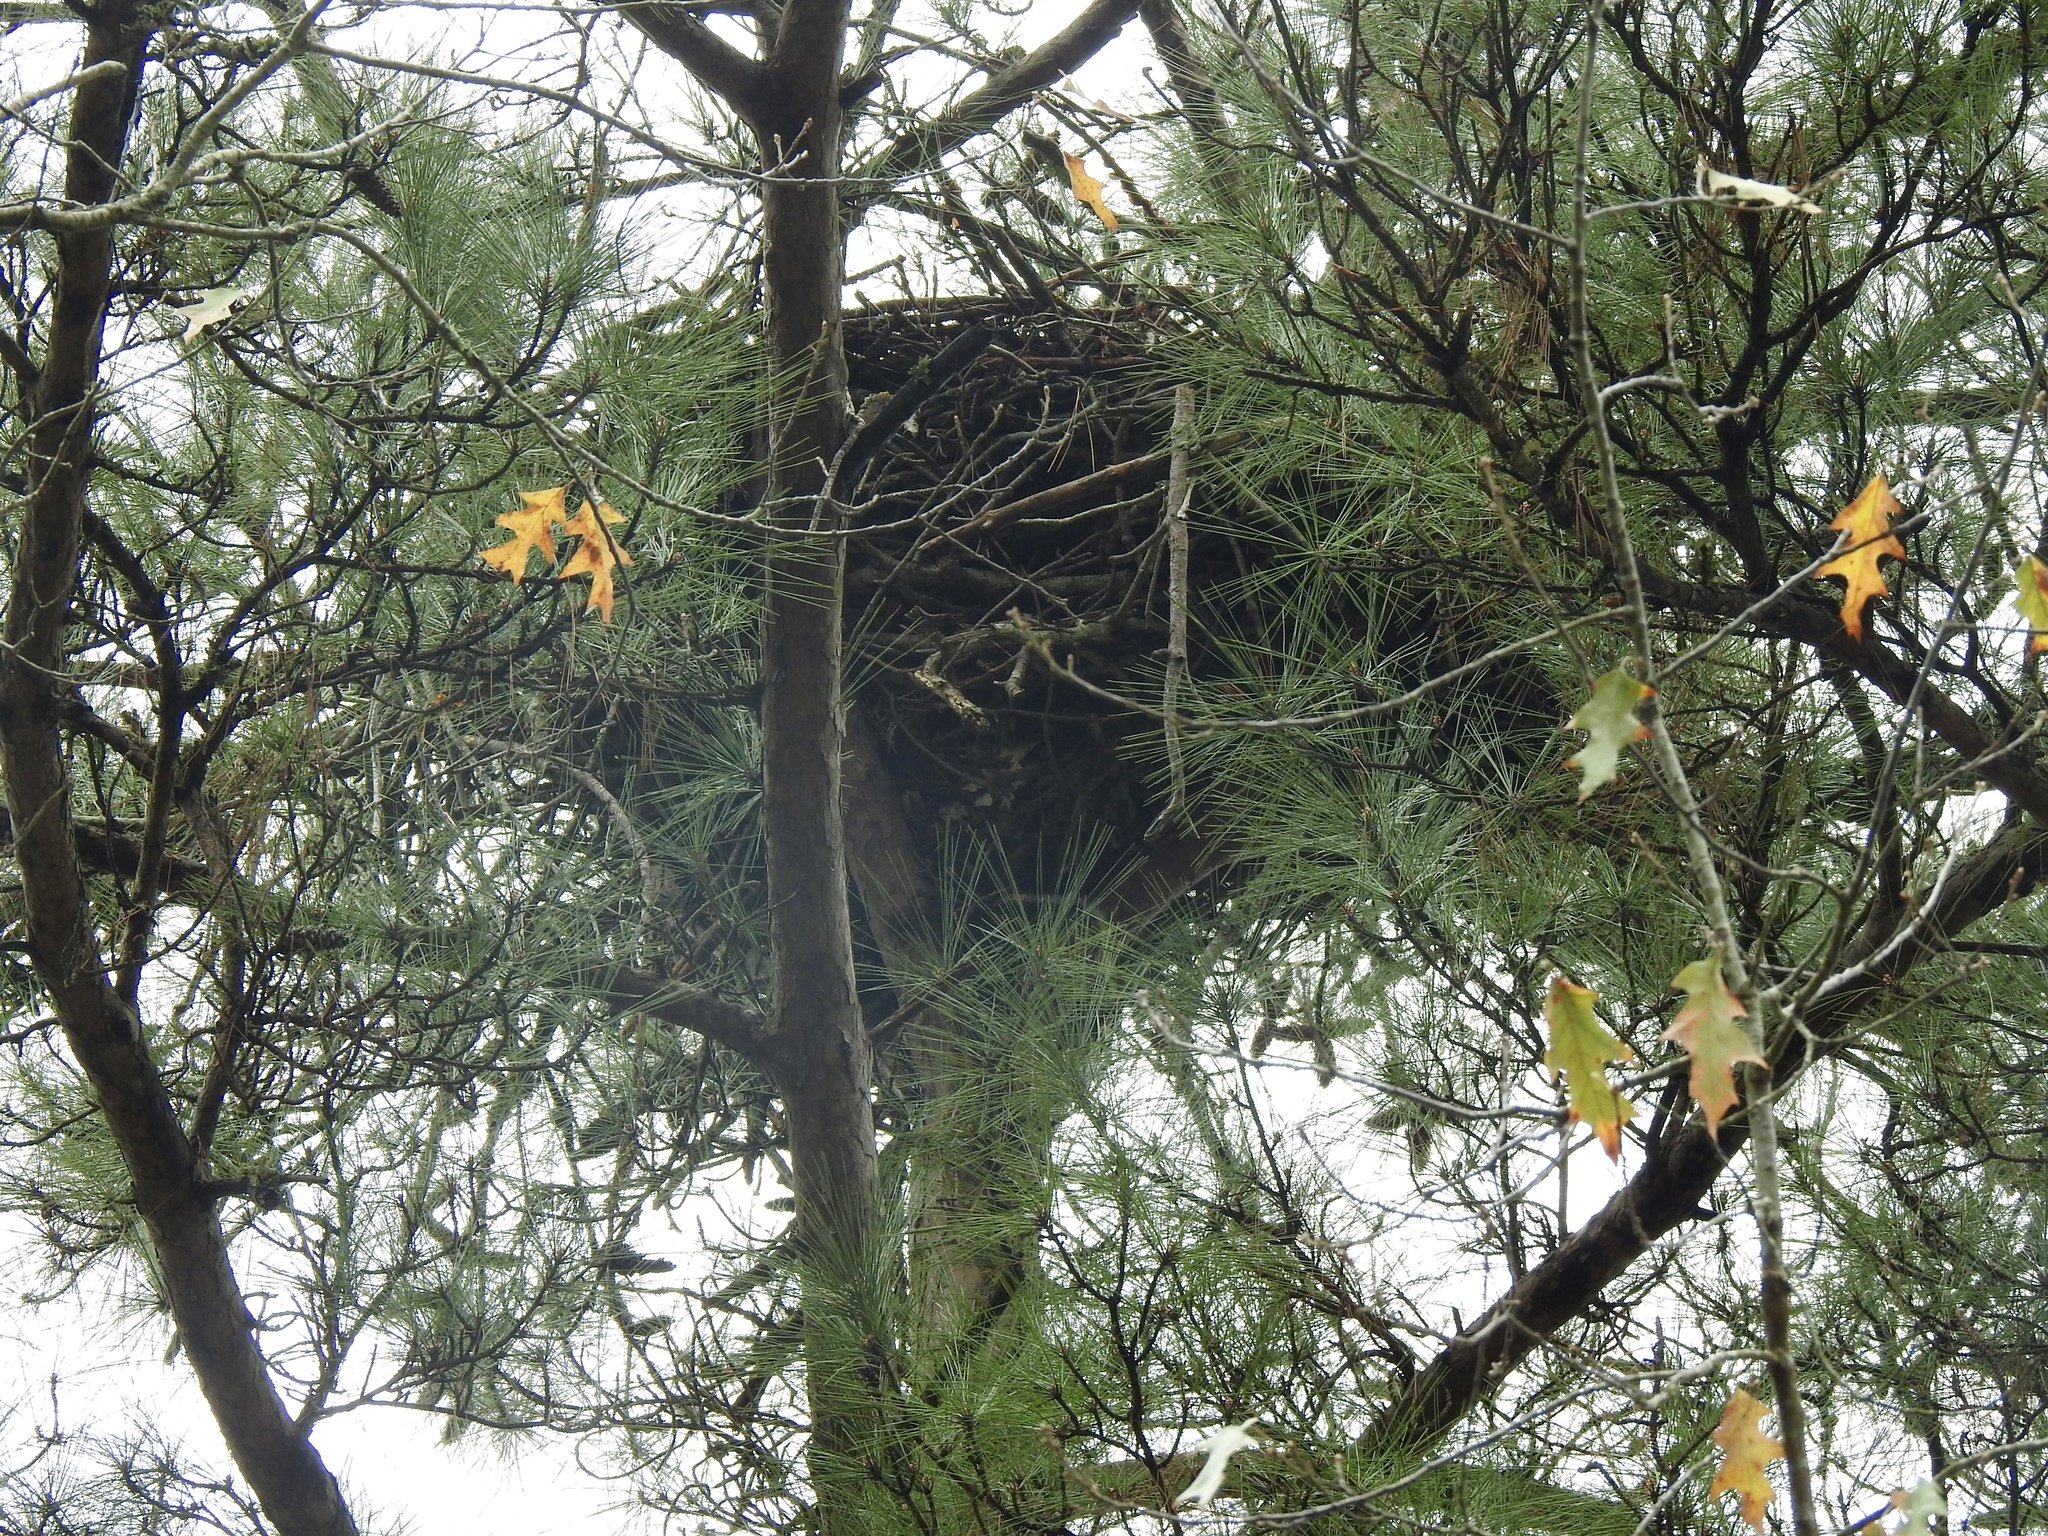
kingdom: Animalia
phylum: Chordata
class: Aves
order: Accipitriformes
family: Accipitridae
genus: Haliaeetus
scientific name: Haliaeetus leucocephalus
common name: Bald eagle
